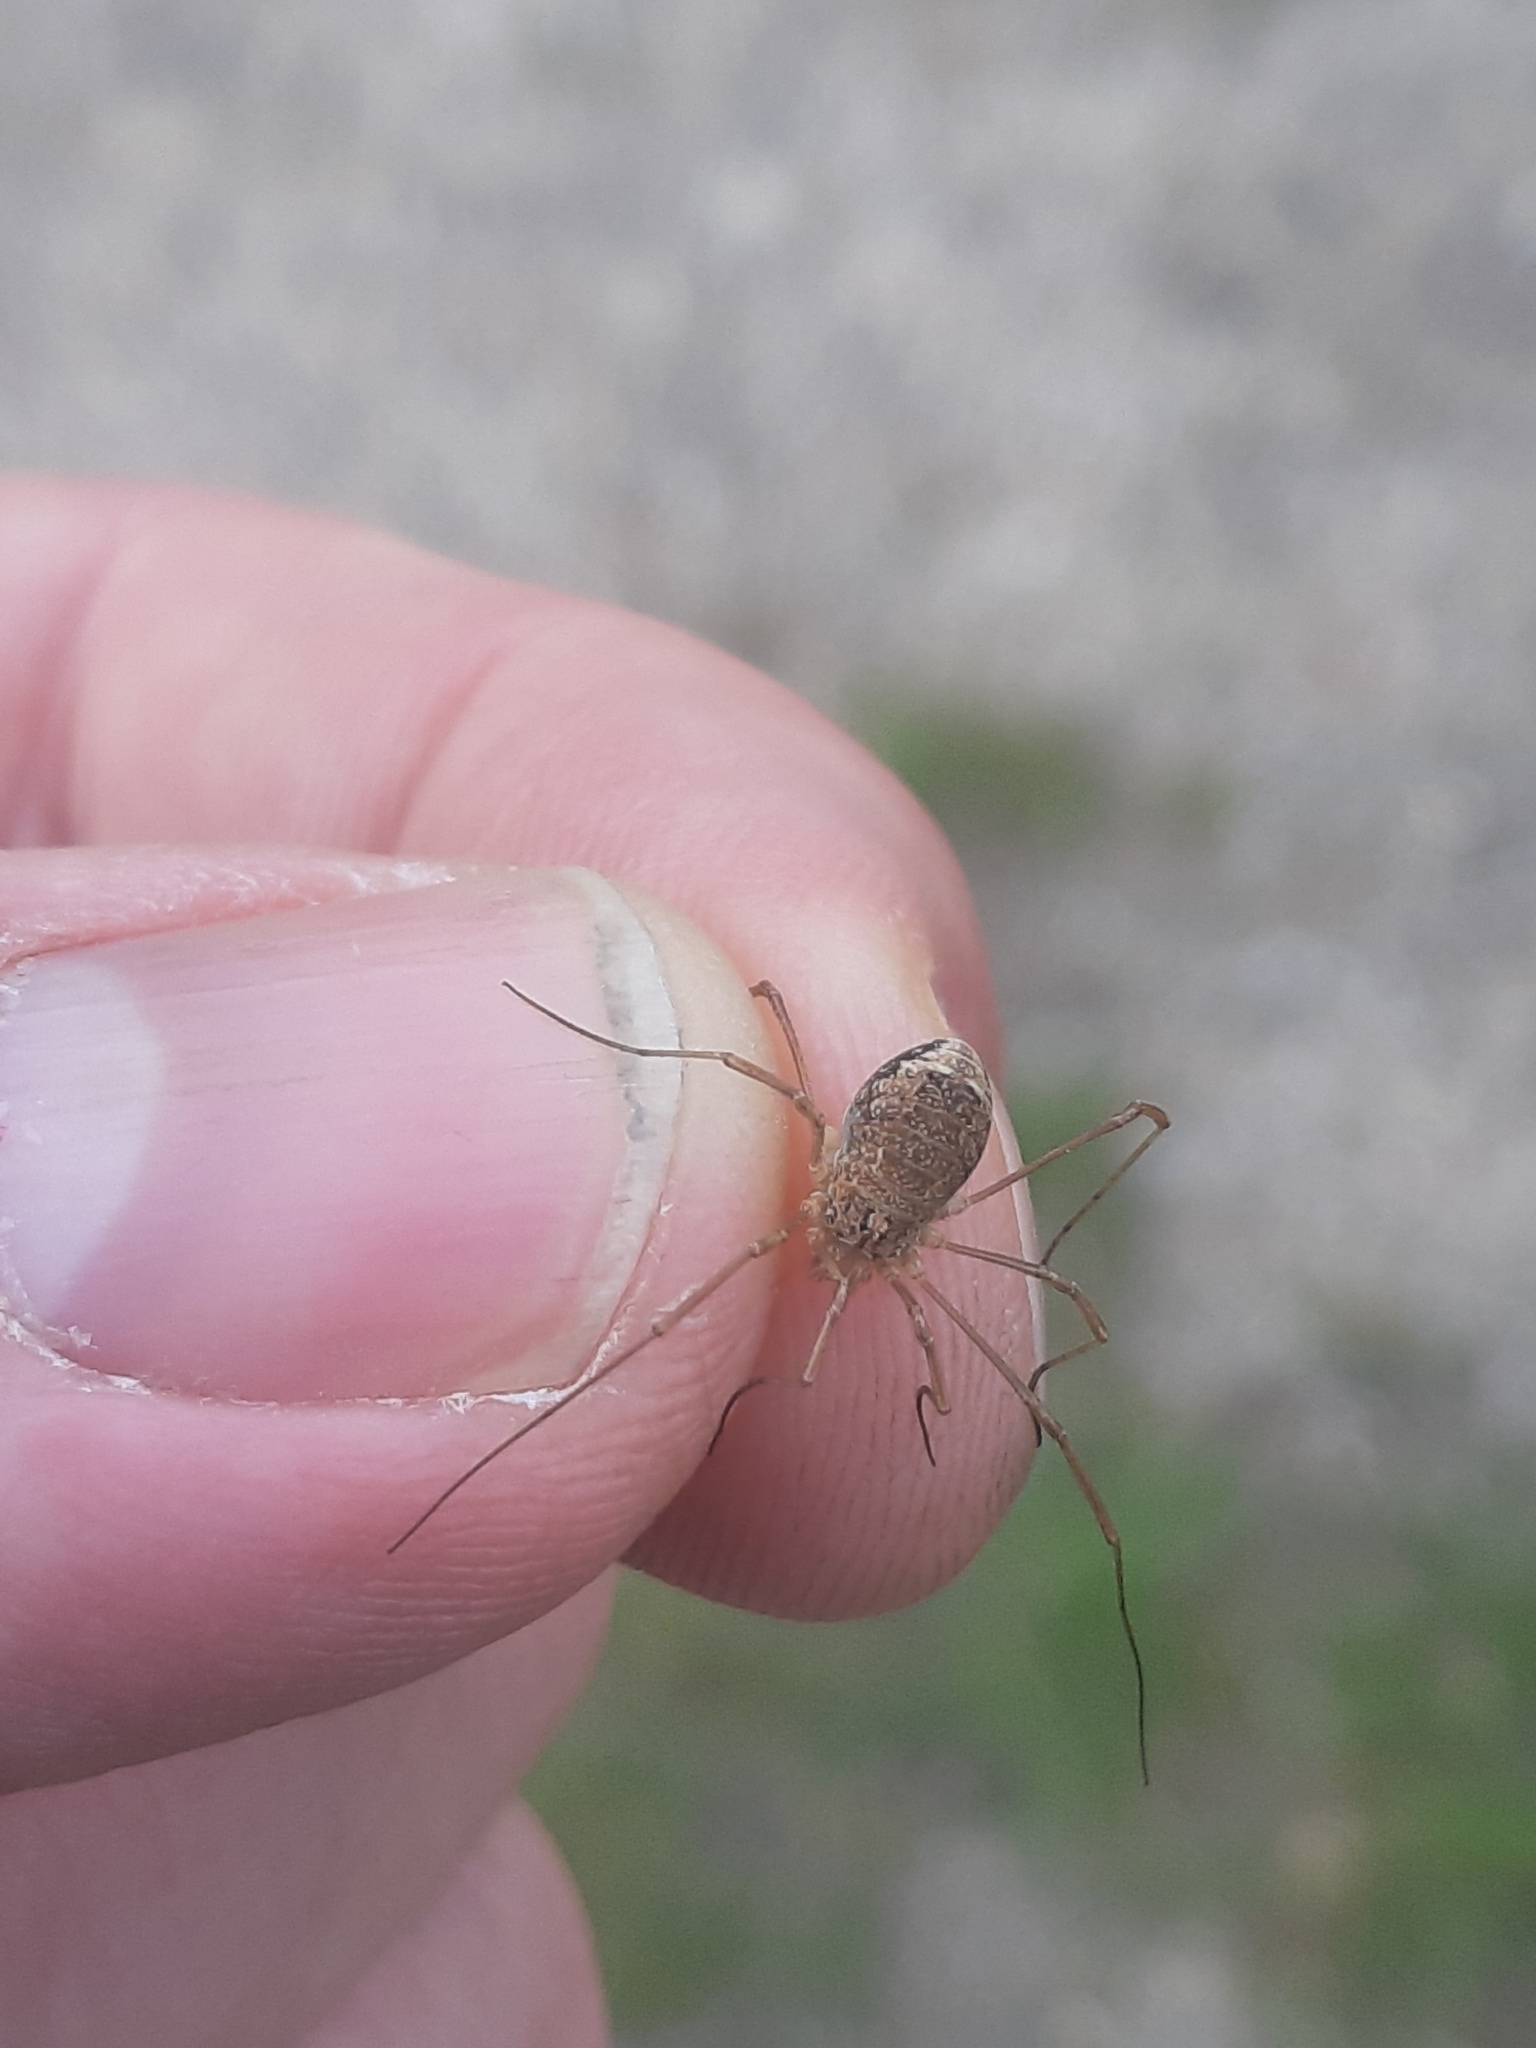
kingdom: Animalia
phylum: Arthropoda
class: Arachnida
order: Opiliones
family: Phalangiidae
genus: Rilaena
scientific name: Rilaena triangularis
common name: Spring harvestman
